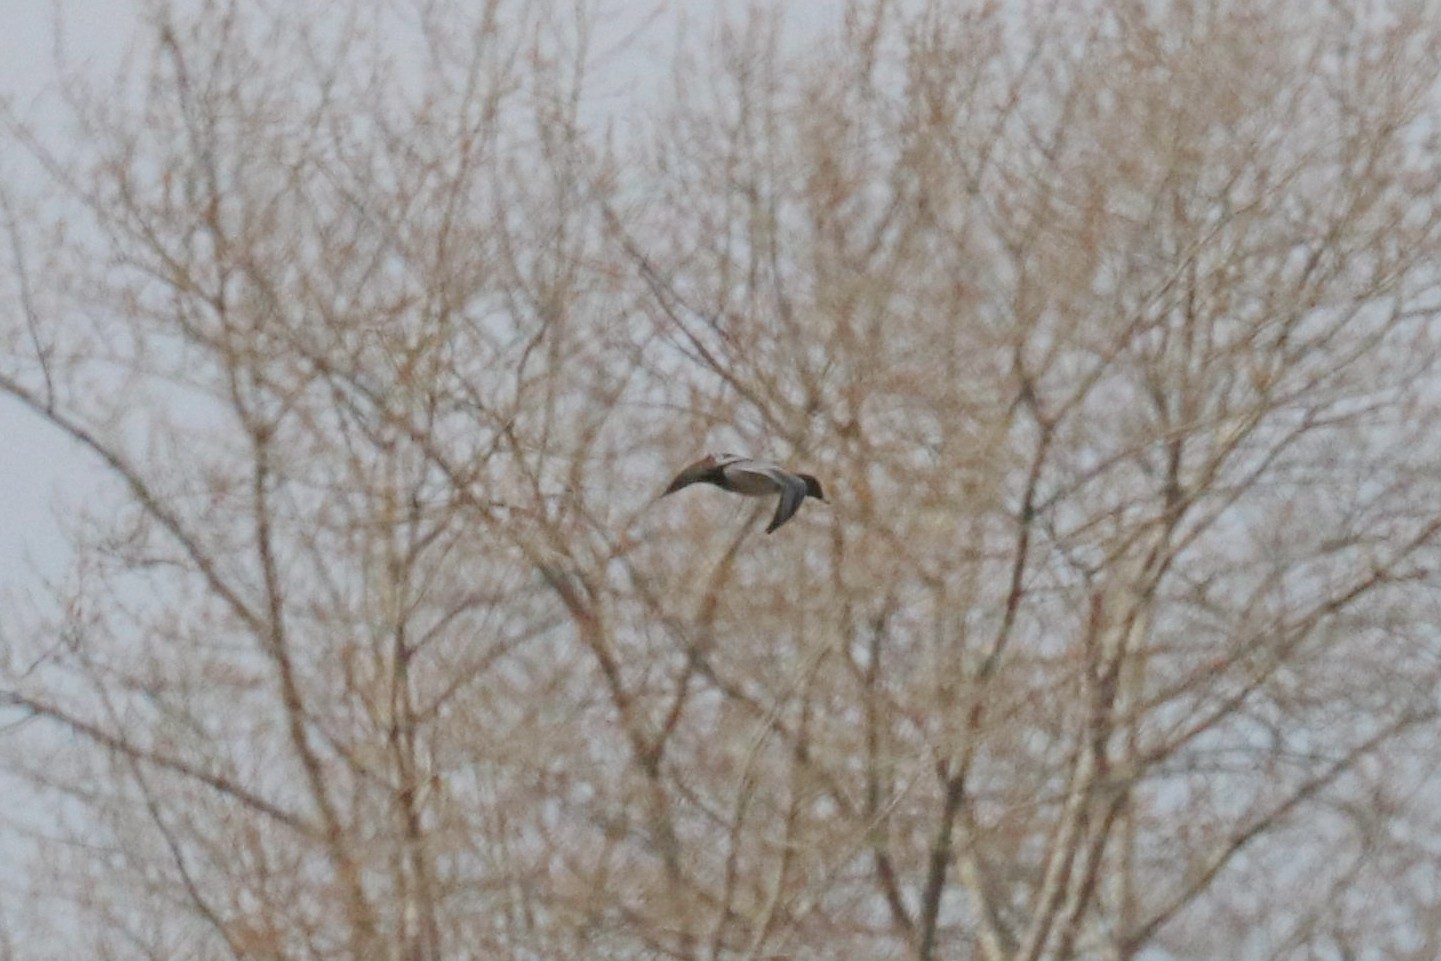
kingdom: Animalia
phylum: Chordata
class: Aves
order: Anseriformes
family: Anatidae
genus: Aythya
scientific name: Aythya ferina
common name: Common pochard
